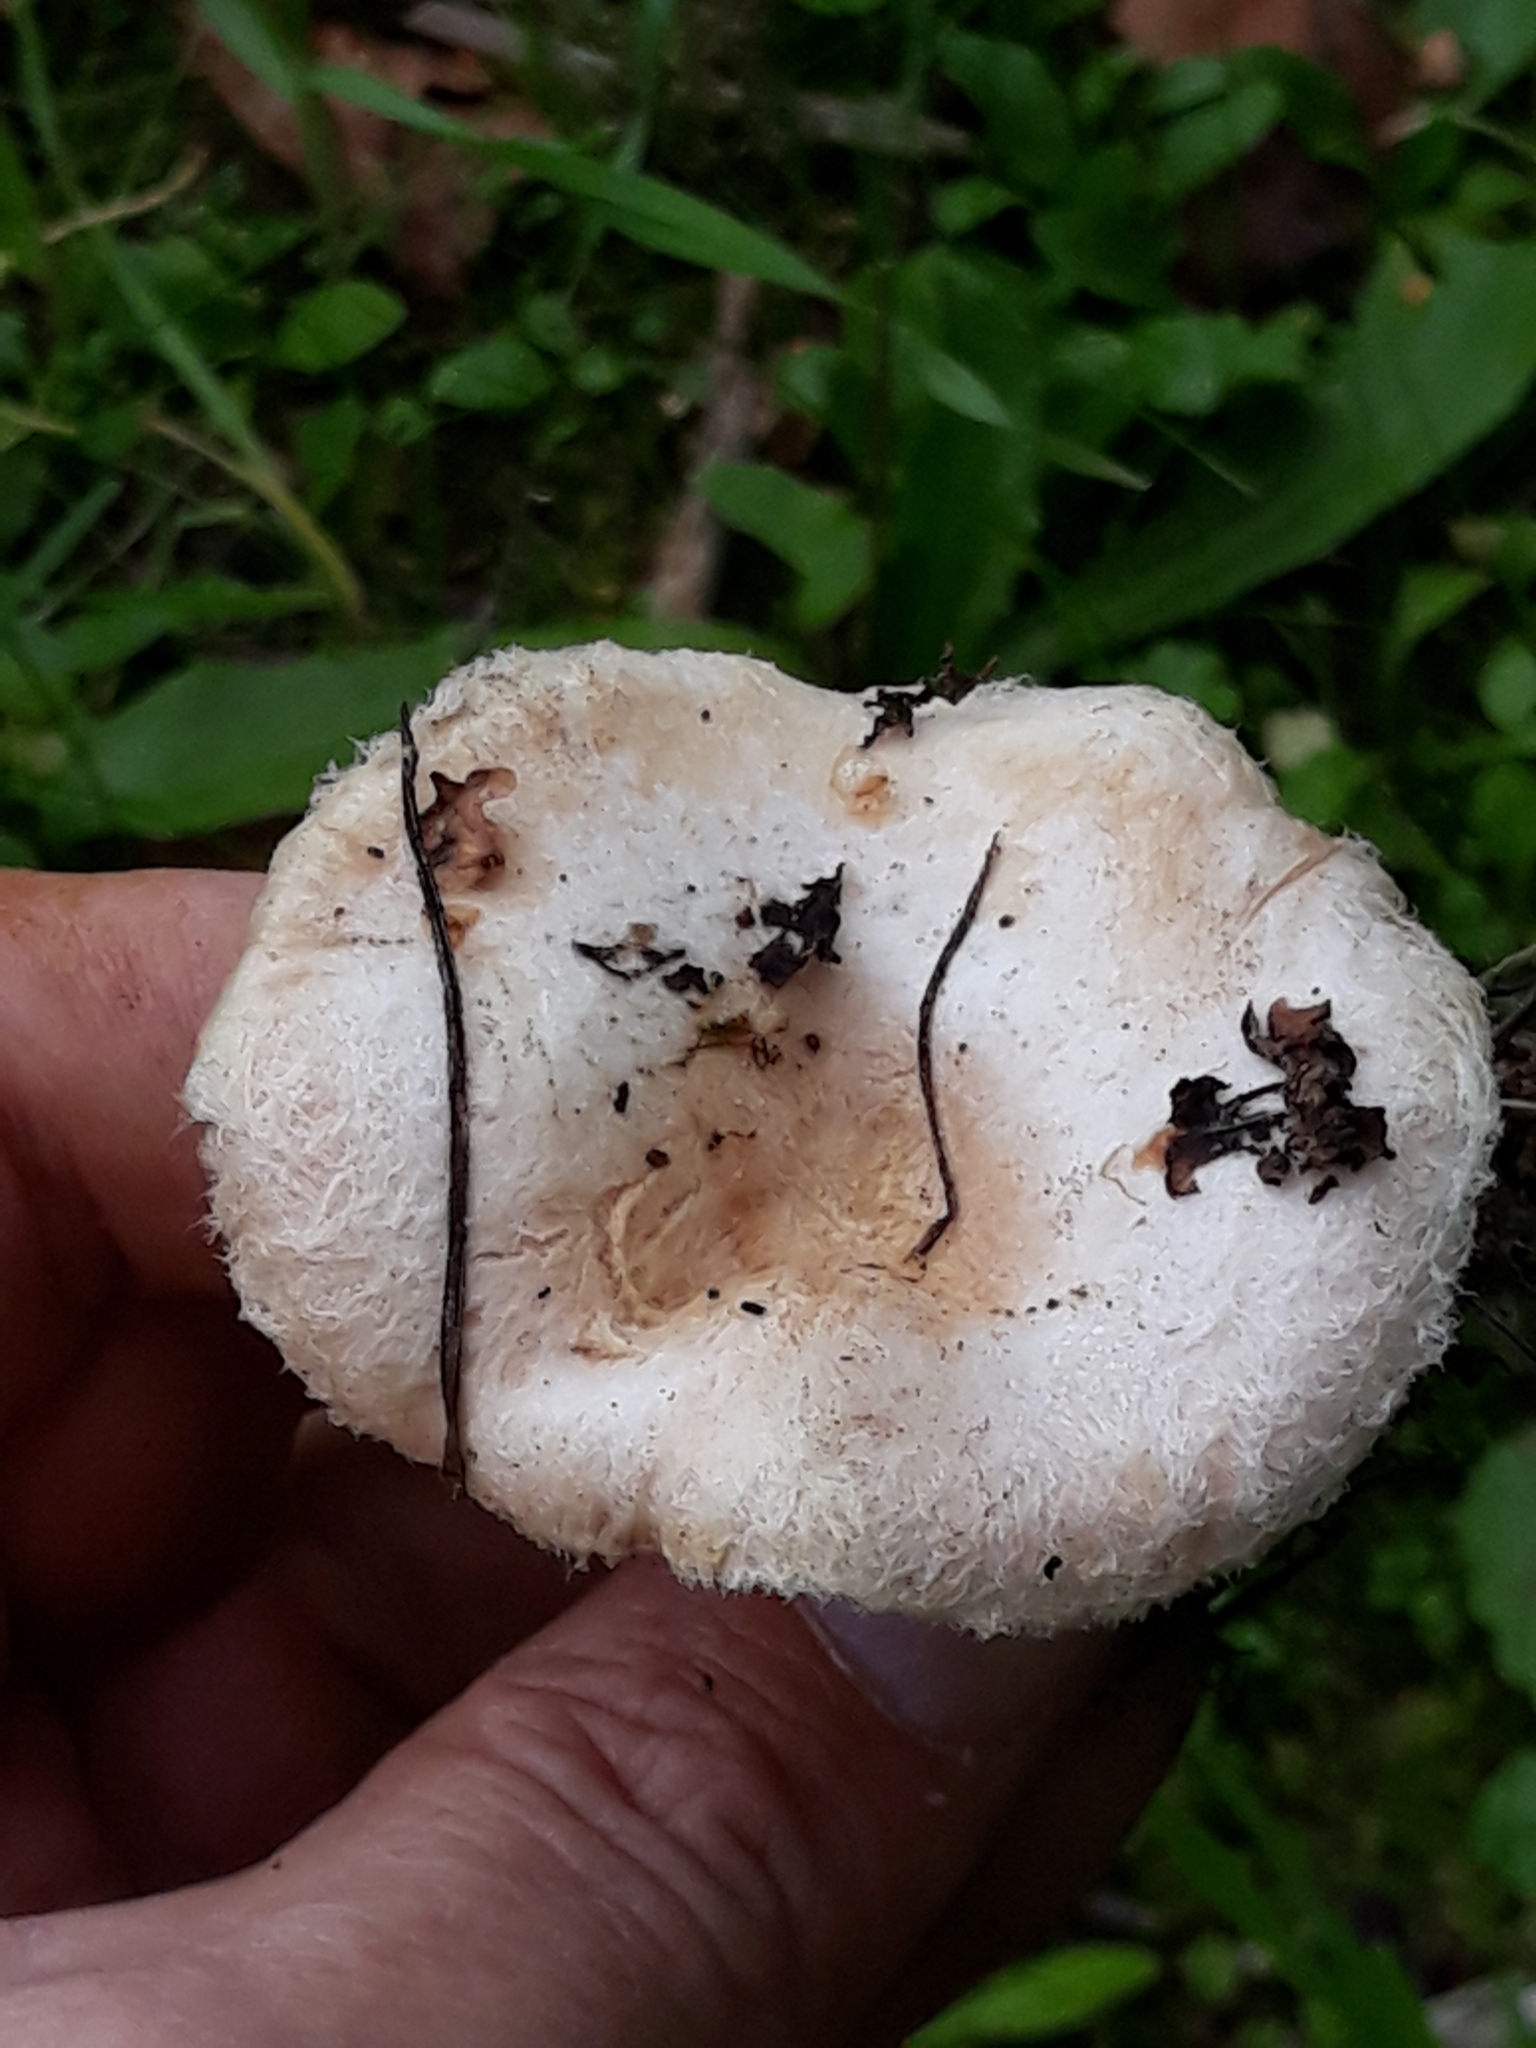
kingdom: Fungi
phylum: Basidiomycota
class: Agaricomycetes
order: Russulales
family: Russulaceae
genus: Lactarius
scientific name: Lactarius pubescens
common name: Bearded milkcap
